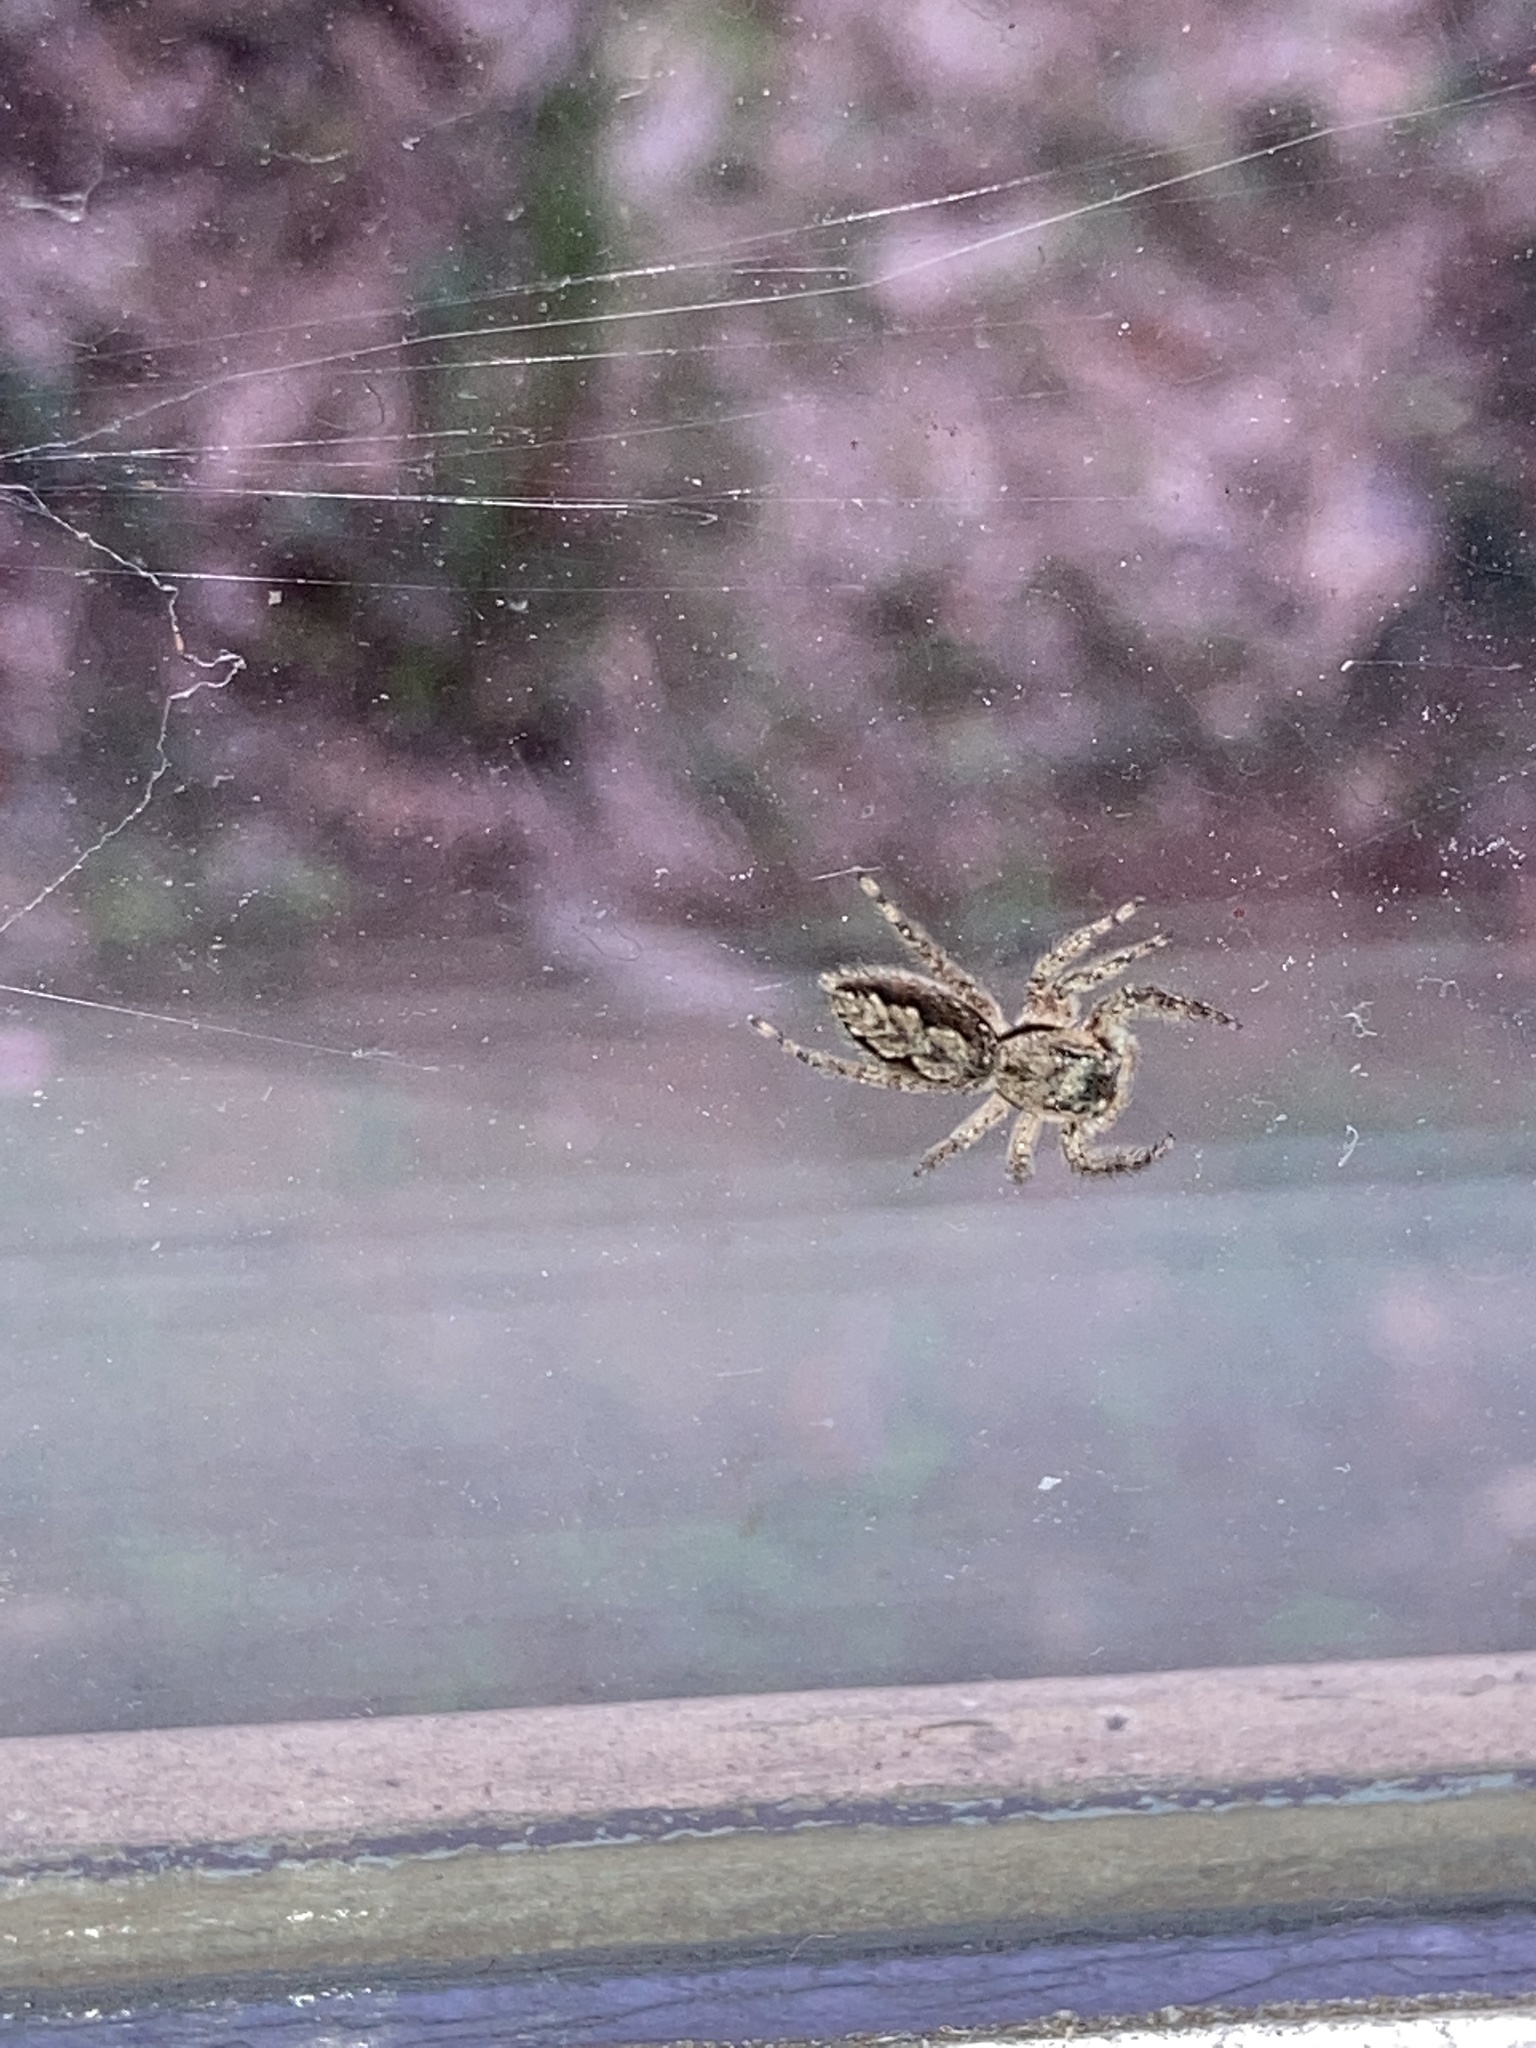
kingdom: Animalia
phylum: Arthropoda
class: Arachnida
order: Araneae
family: Salticidae
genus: Platycryptus
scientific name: Platycryptus undatus
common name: Tan jumping spider
